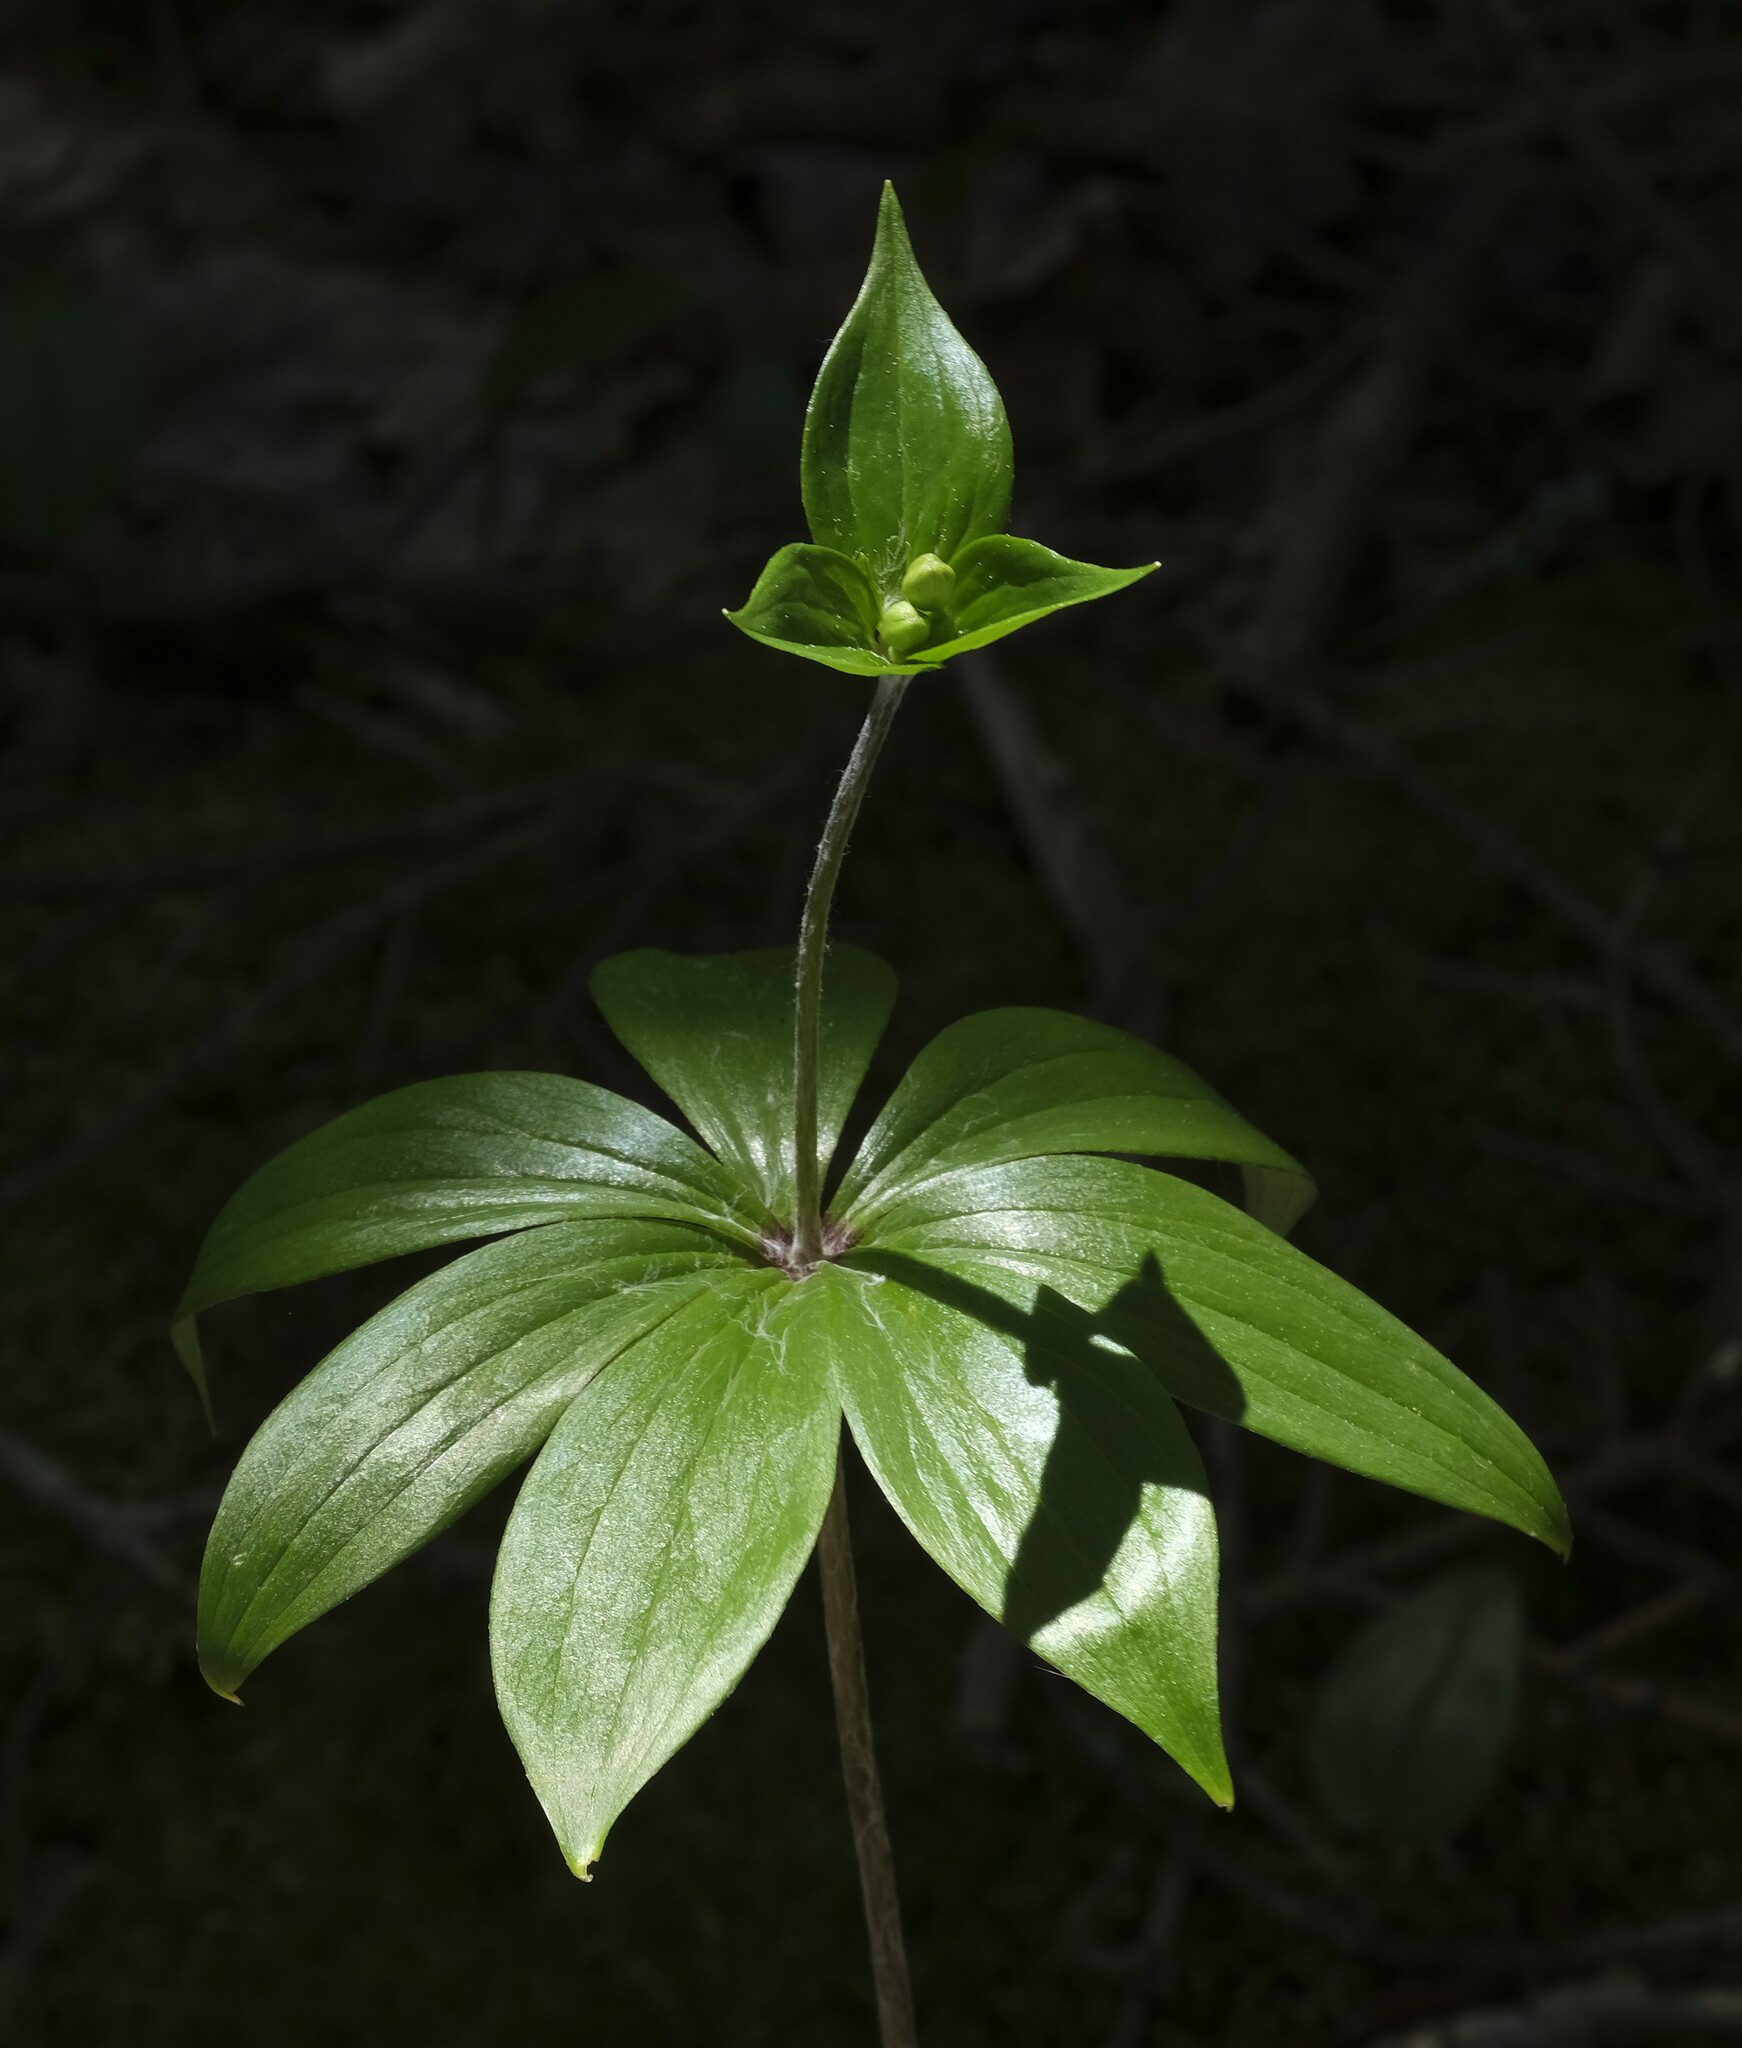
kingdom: Plantae
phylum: Tracheophyta
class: Liliopsida
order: Liliales
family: Liliaceae
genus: Medeola
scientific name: Medeola virginiana
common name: Indian cucumber-root
